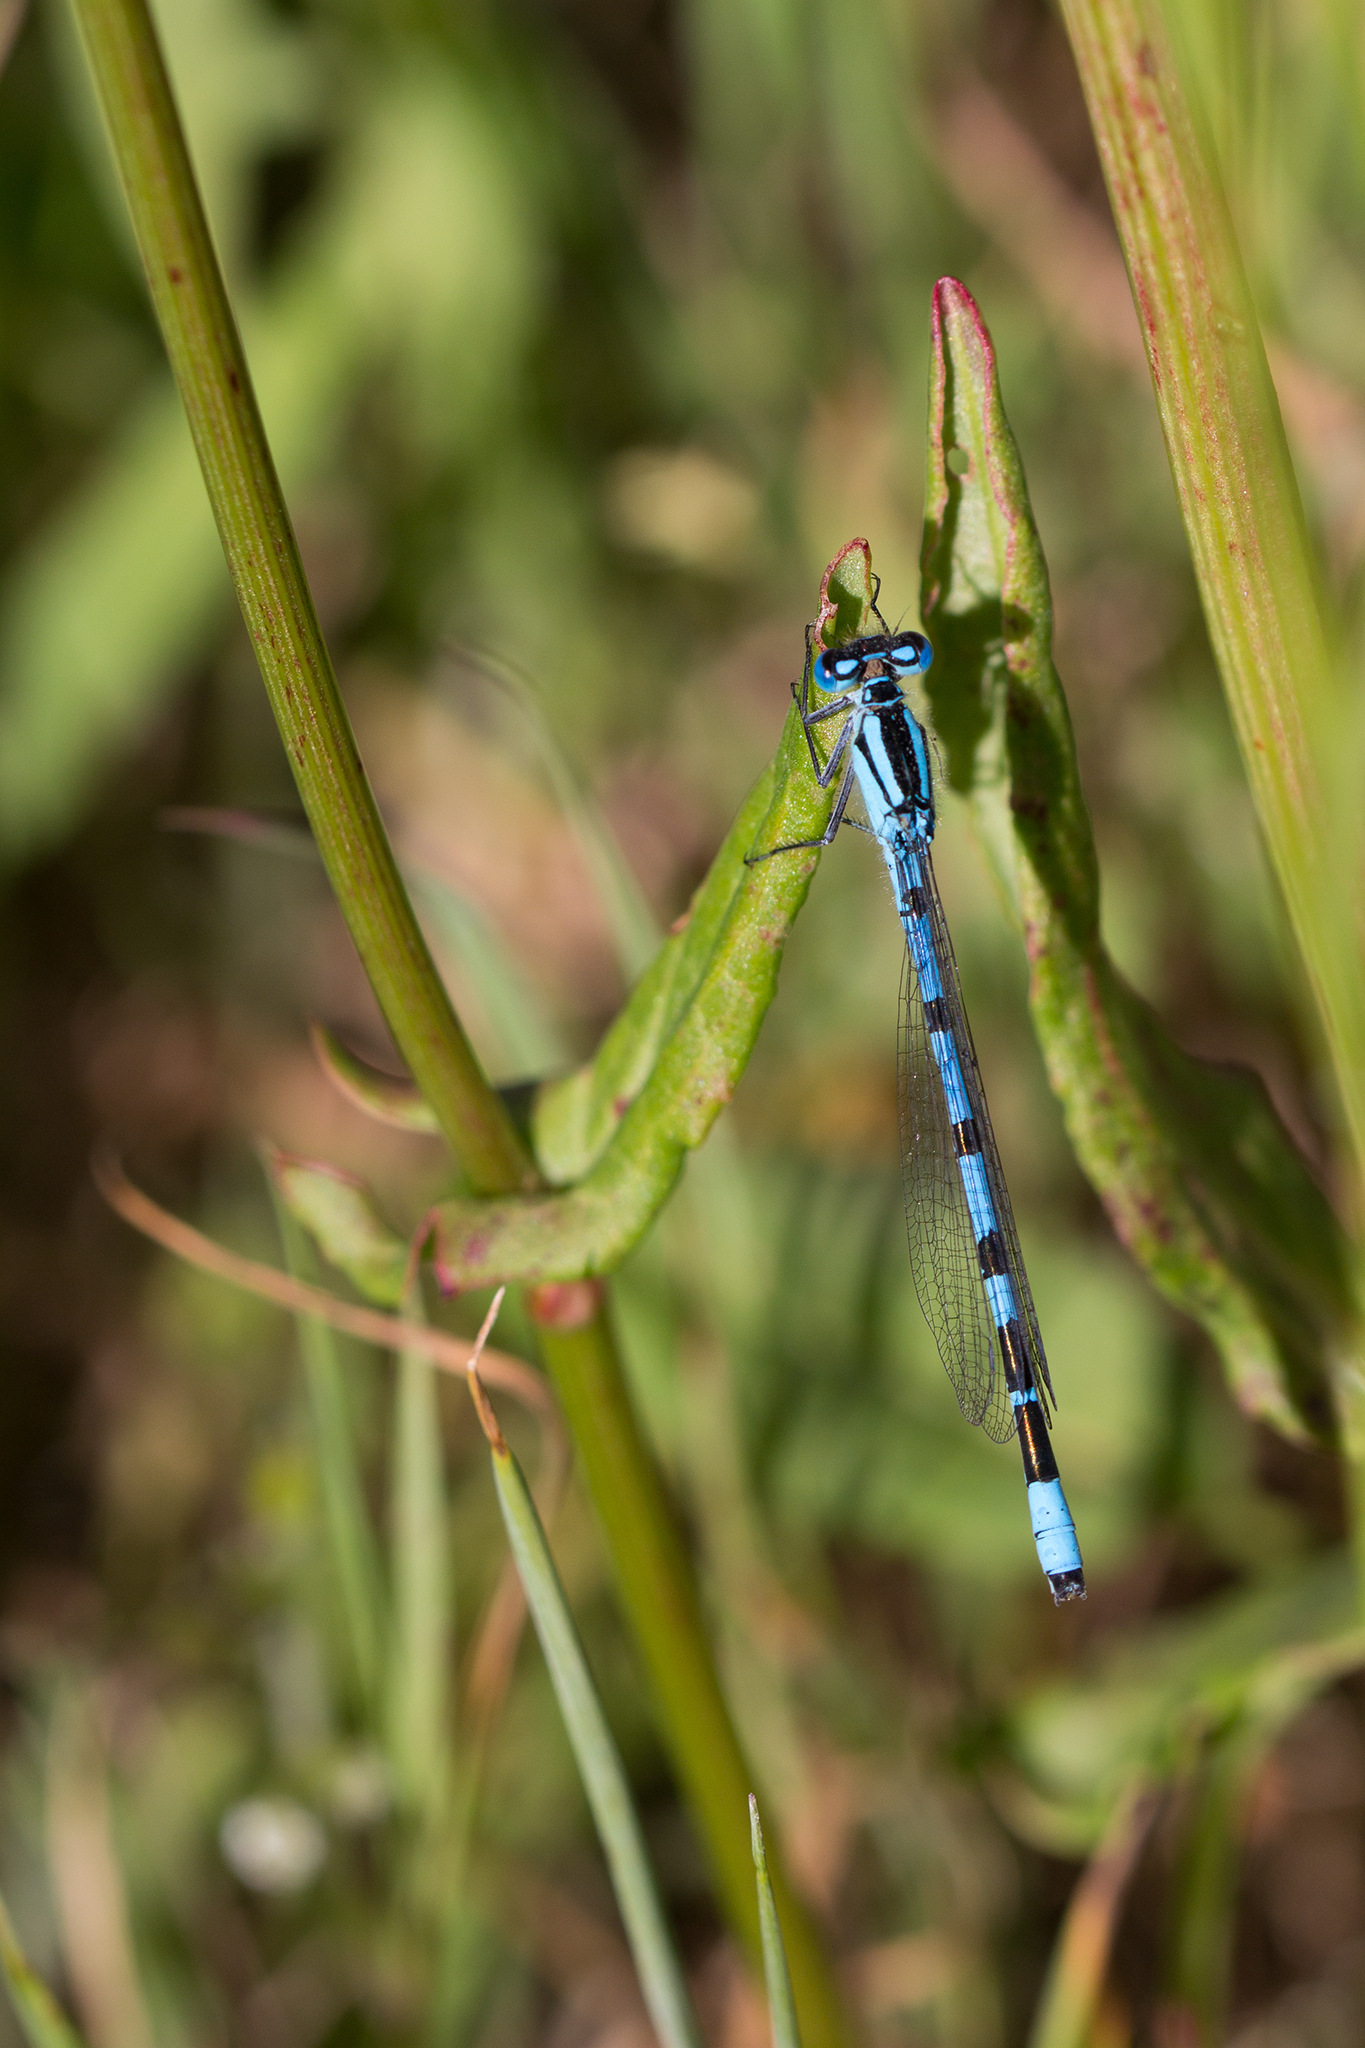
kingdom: Animalia
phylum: Arthropoda
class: Insecta
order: Odonata
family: Coenagrionidae
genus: Enallagma
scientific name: Enallagma cyathigerum
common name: Common blue damselfly
